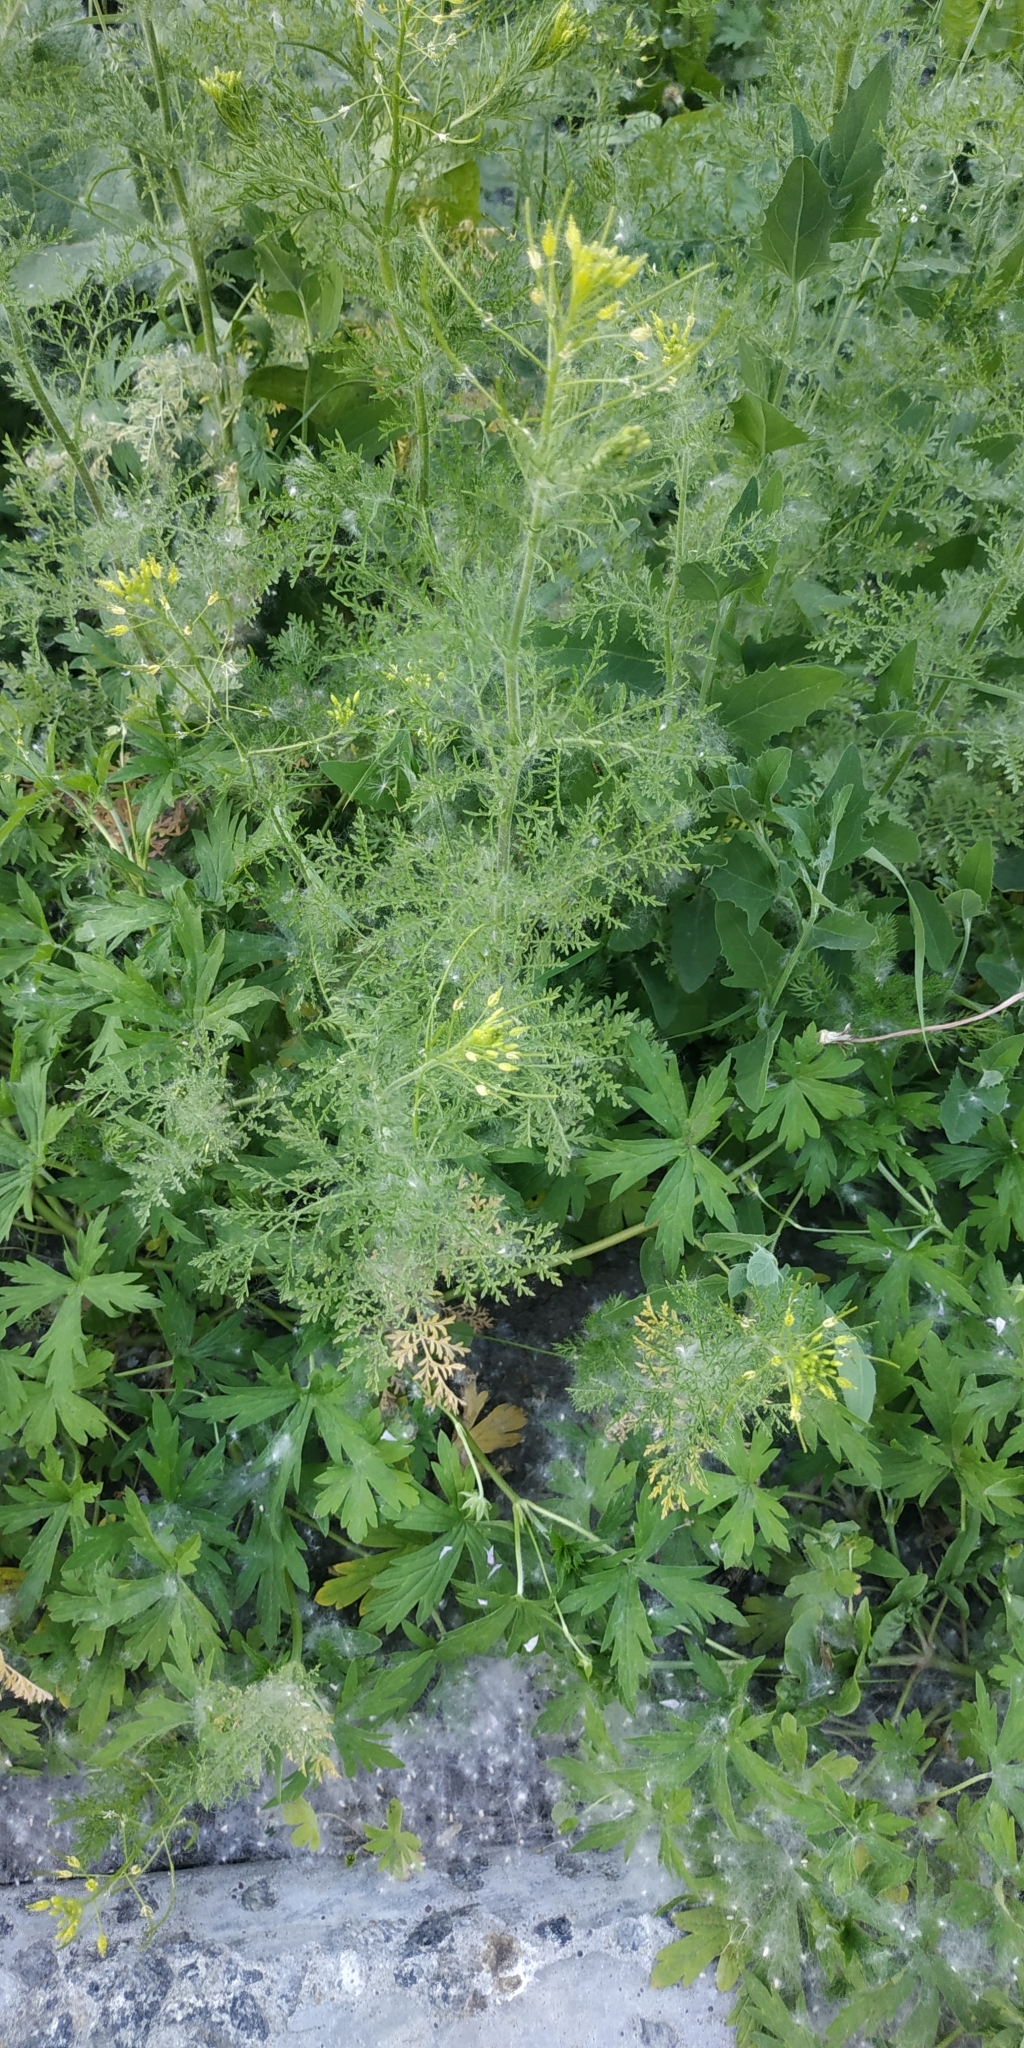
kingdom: Plantae
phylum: Tracheophyta
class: Magnoliopsida
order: Brassicales
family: Brassicaceae
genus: Descurainia
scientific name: Descurainia sophia
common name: Flixweed
